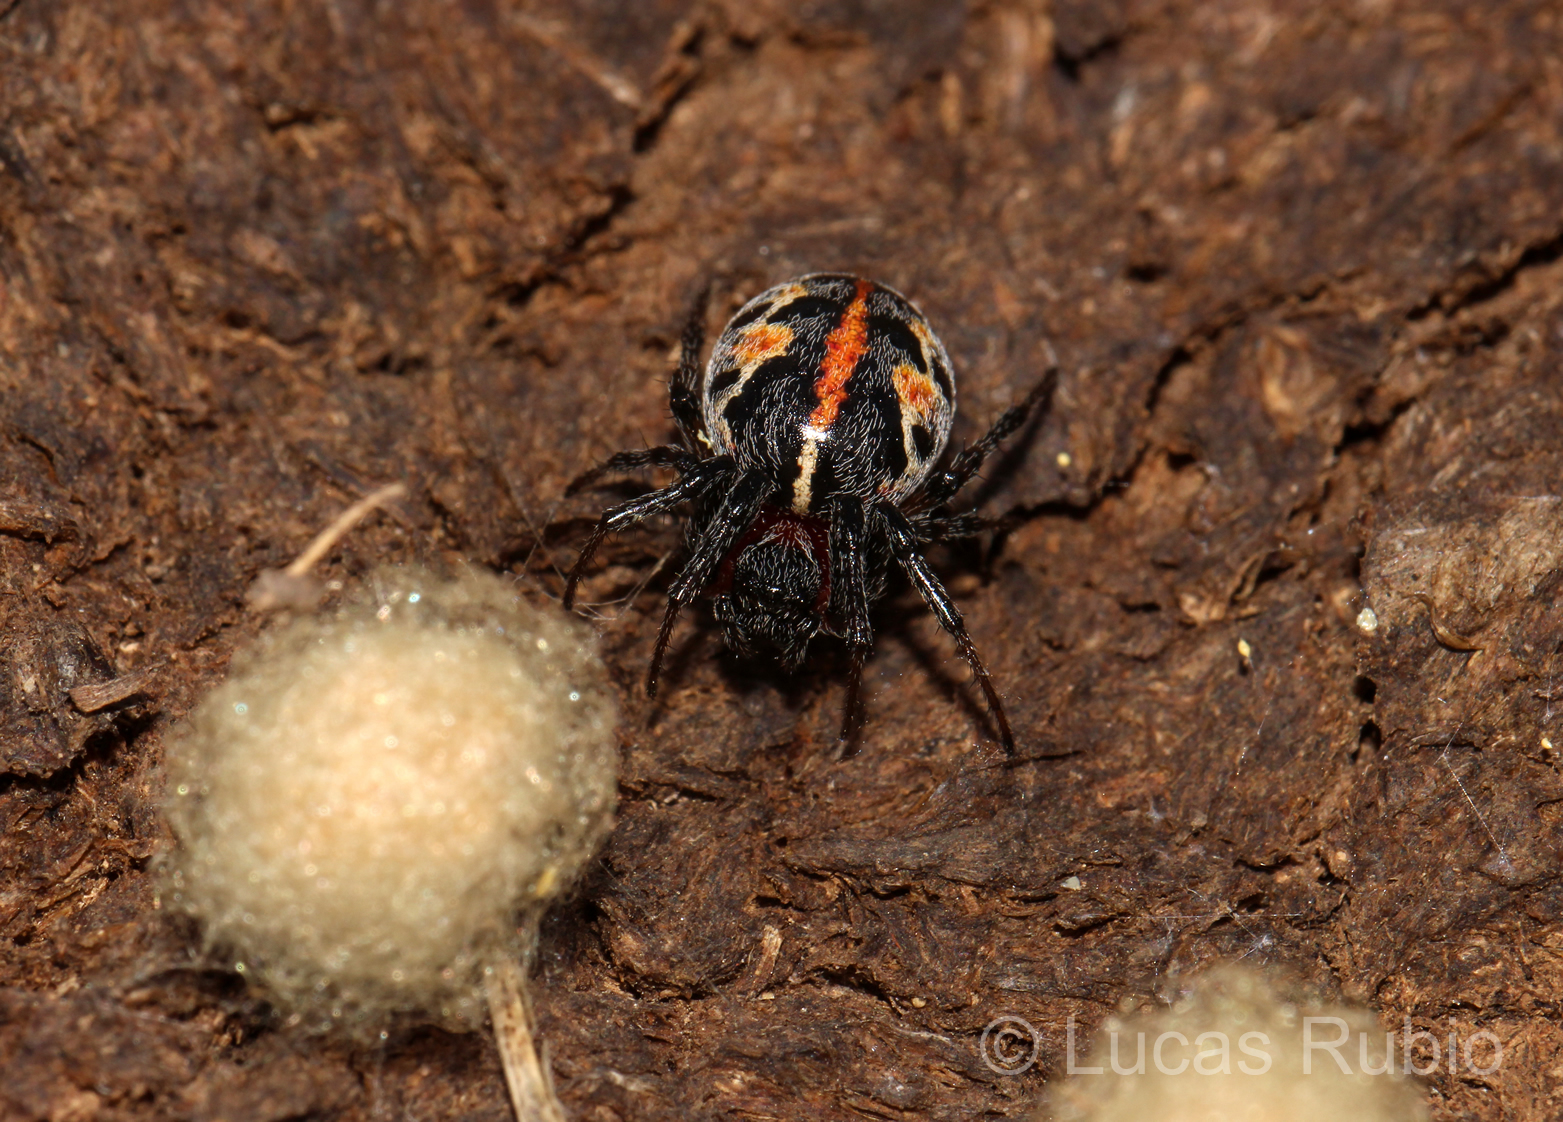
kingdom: Animalia
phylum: Arthropoda
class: Arachnida
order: Araneae
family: Araneidae
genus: Alpaida
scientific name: Alpaida versicolor
